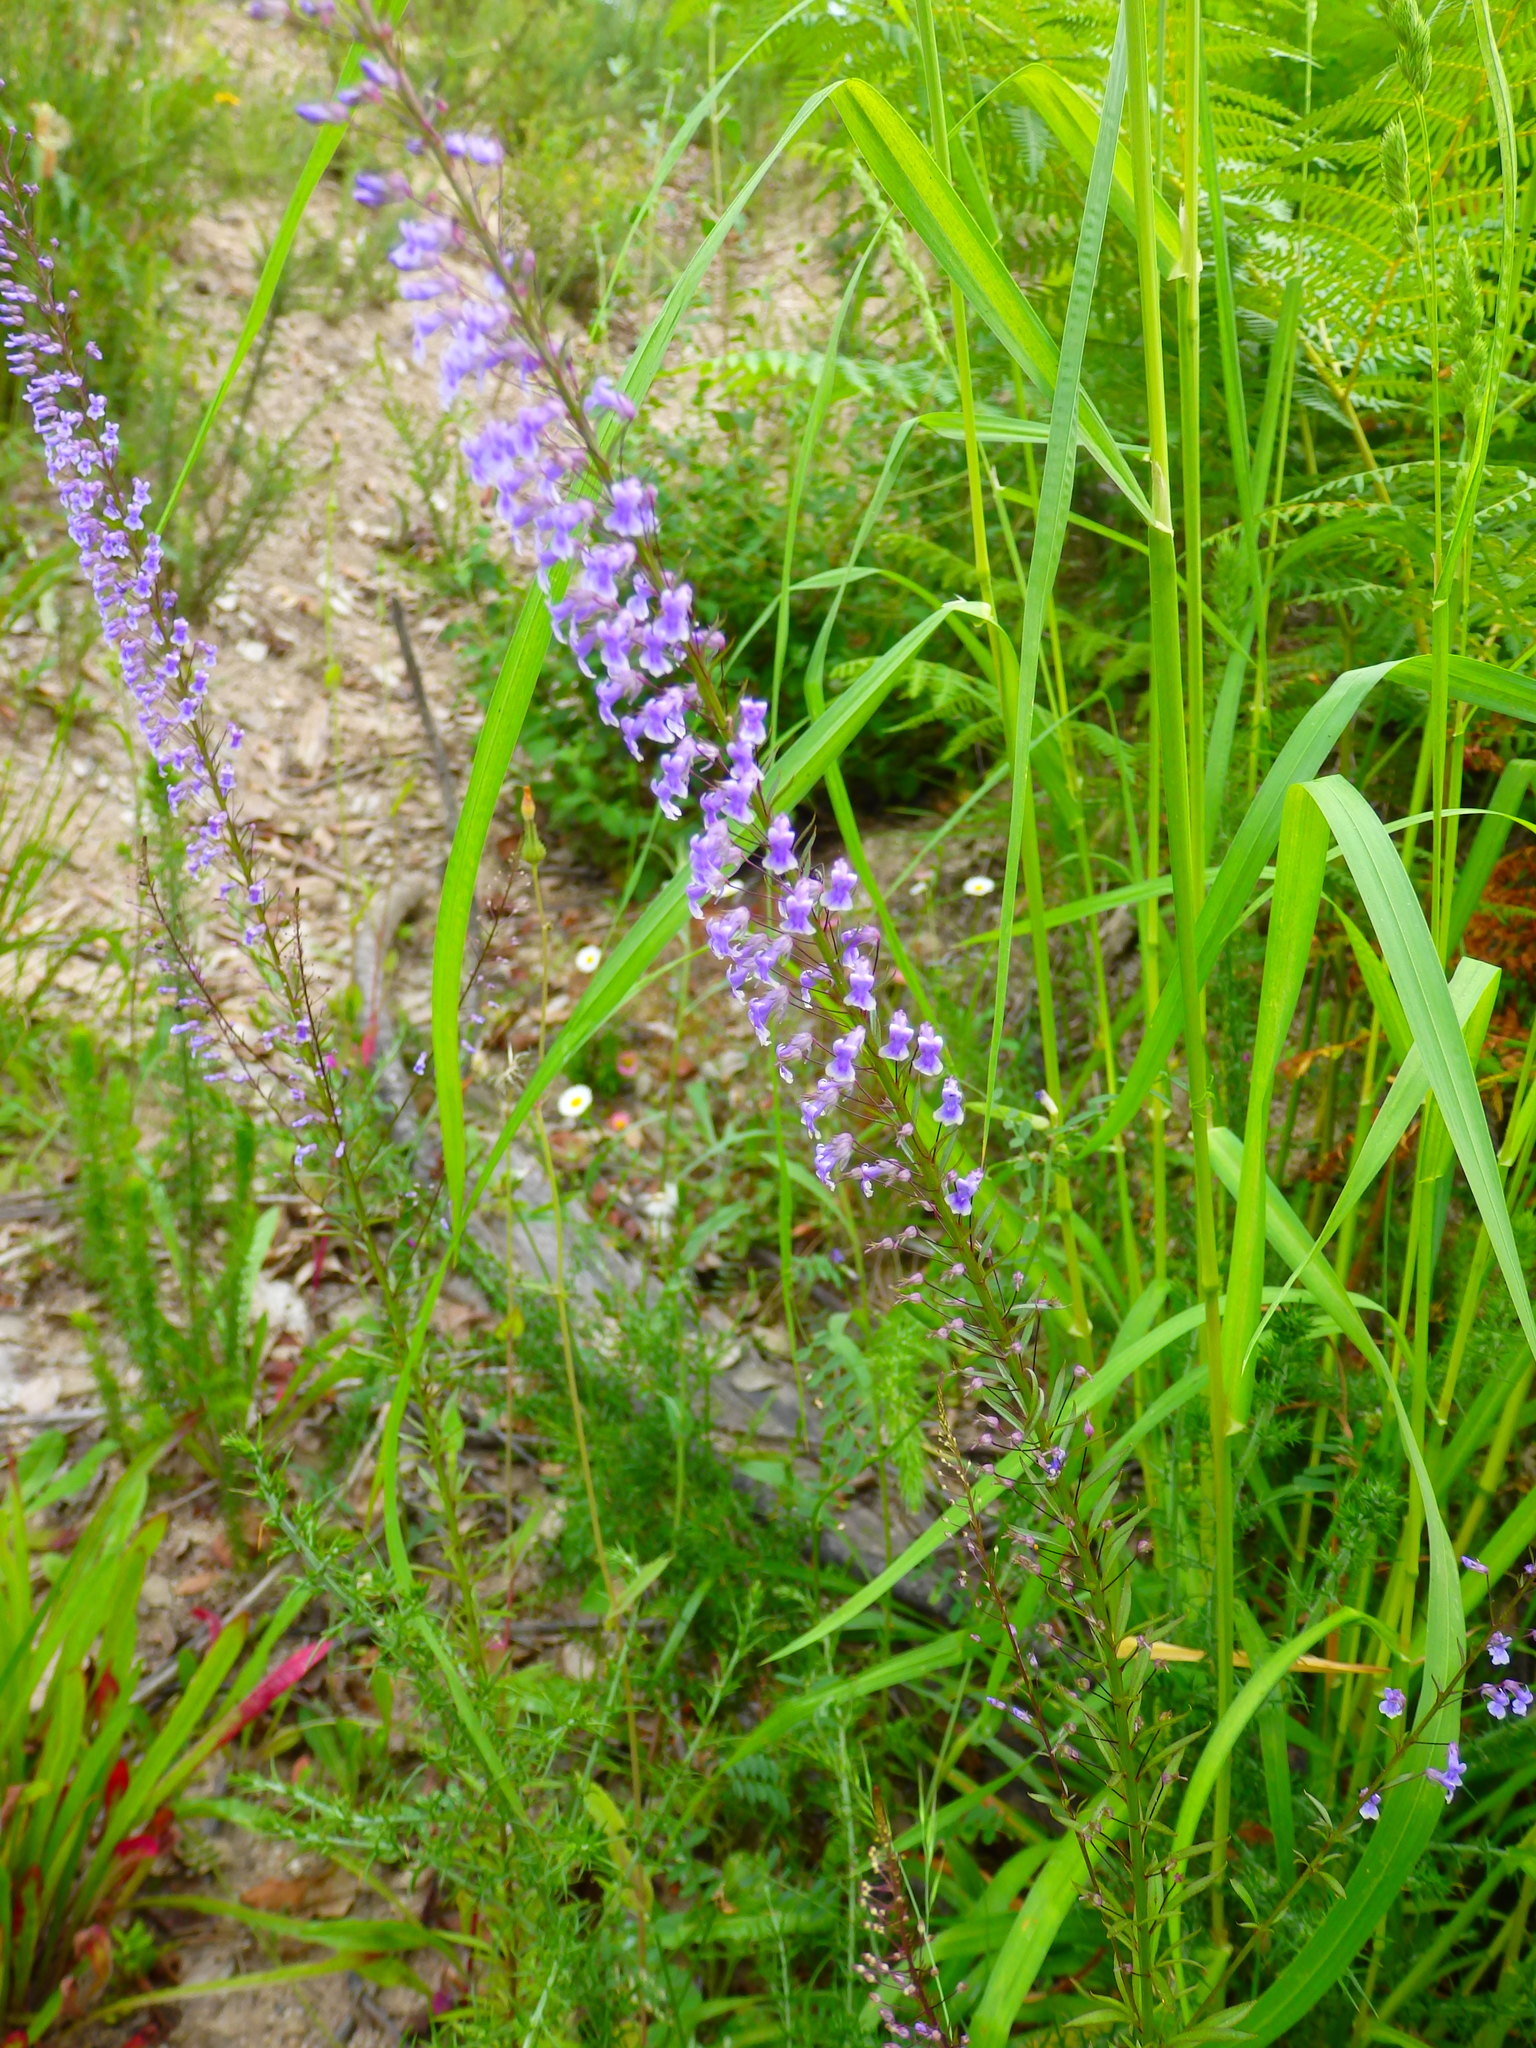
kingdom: Plantae
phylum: Tracheophyta
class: Magnoliopsida
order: Lamiales
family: Plantaginaceae
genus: Anarrhinum
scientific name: Anarrhinum longipedicellatum
